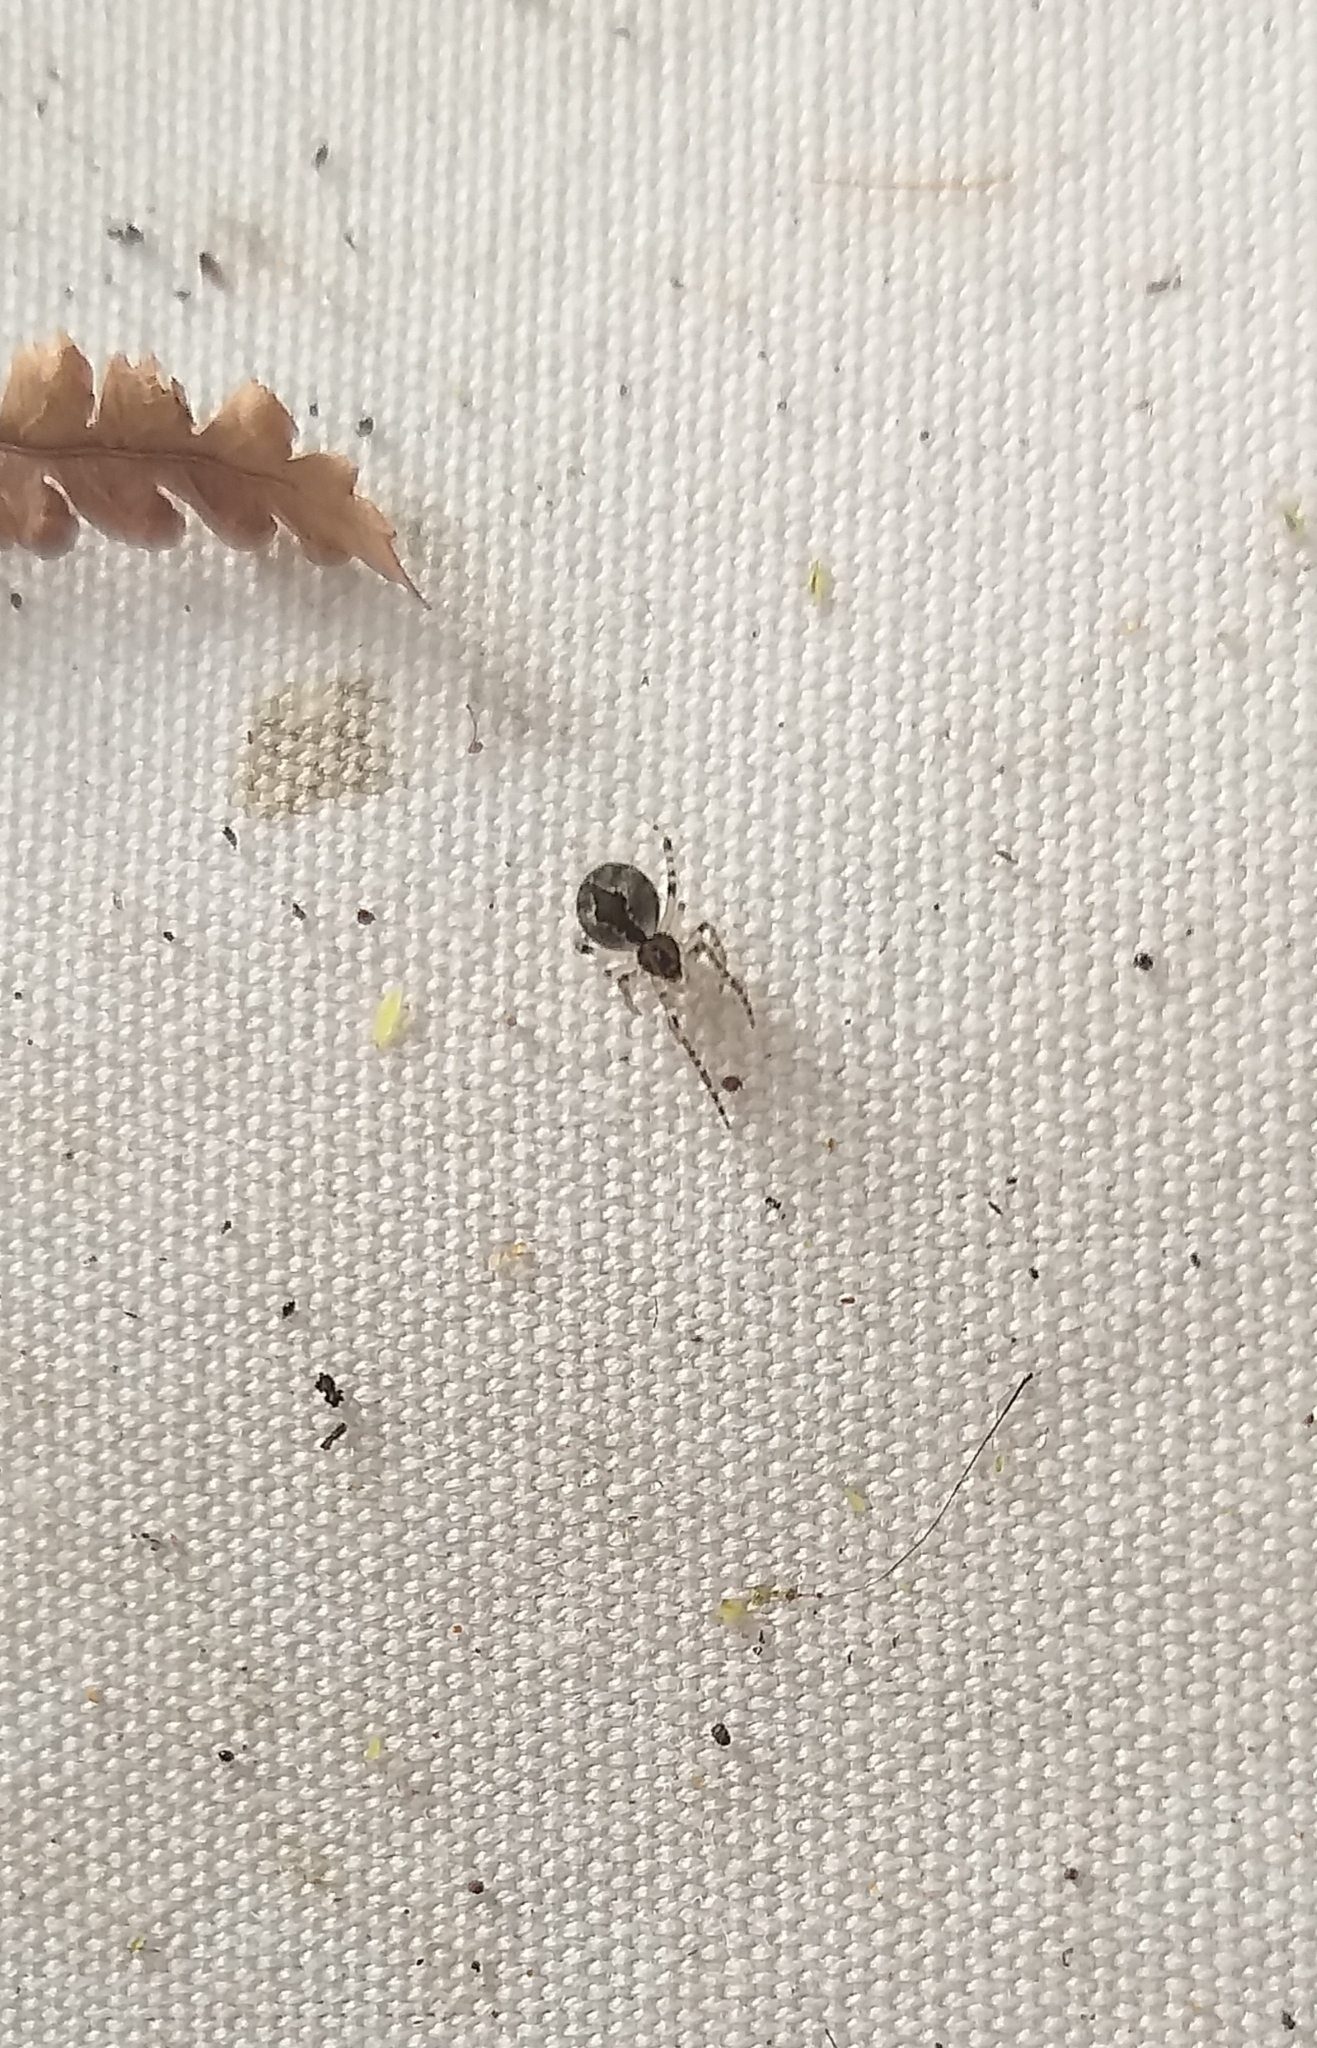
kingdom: Animalia
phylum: Arthropoda
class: Arachnida
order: Araneae
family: Theridiidae
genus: Cryptachaea
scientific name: Cryptachaea veruculata
